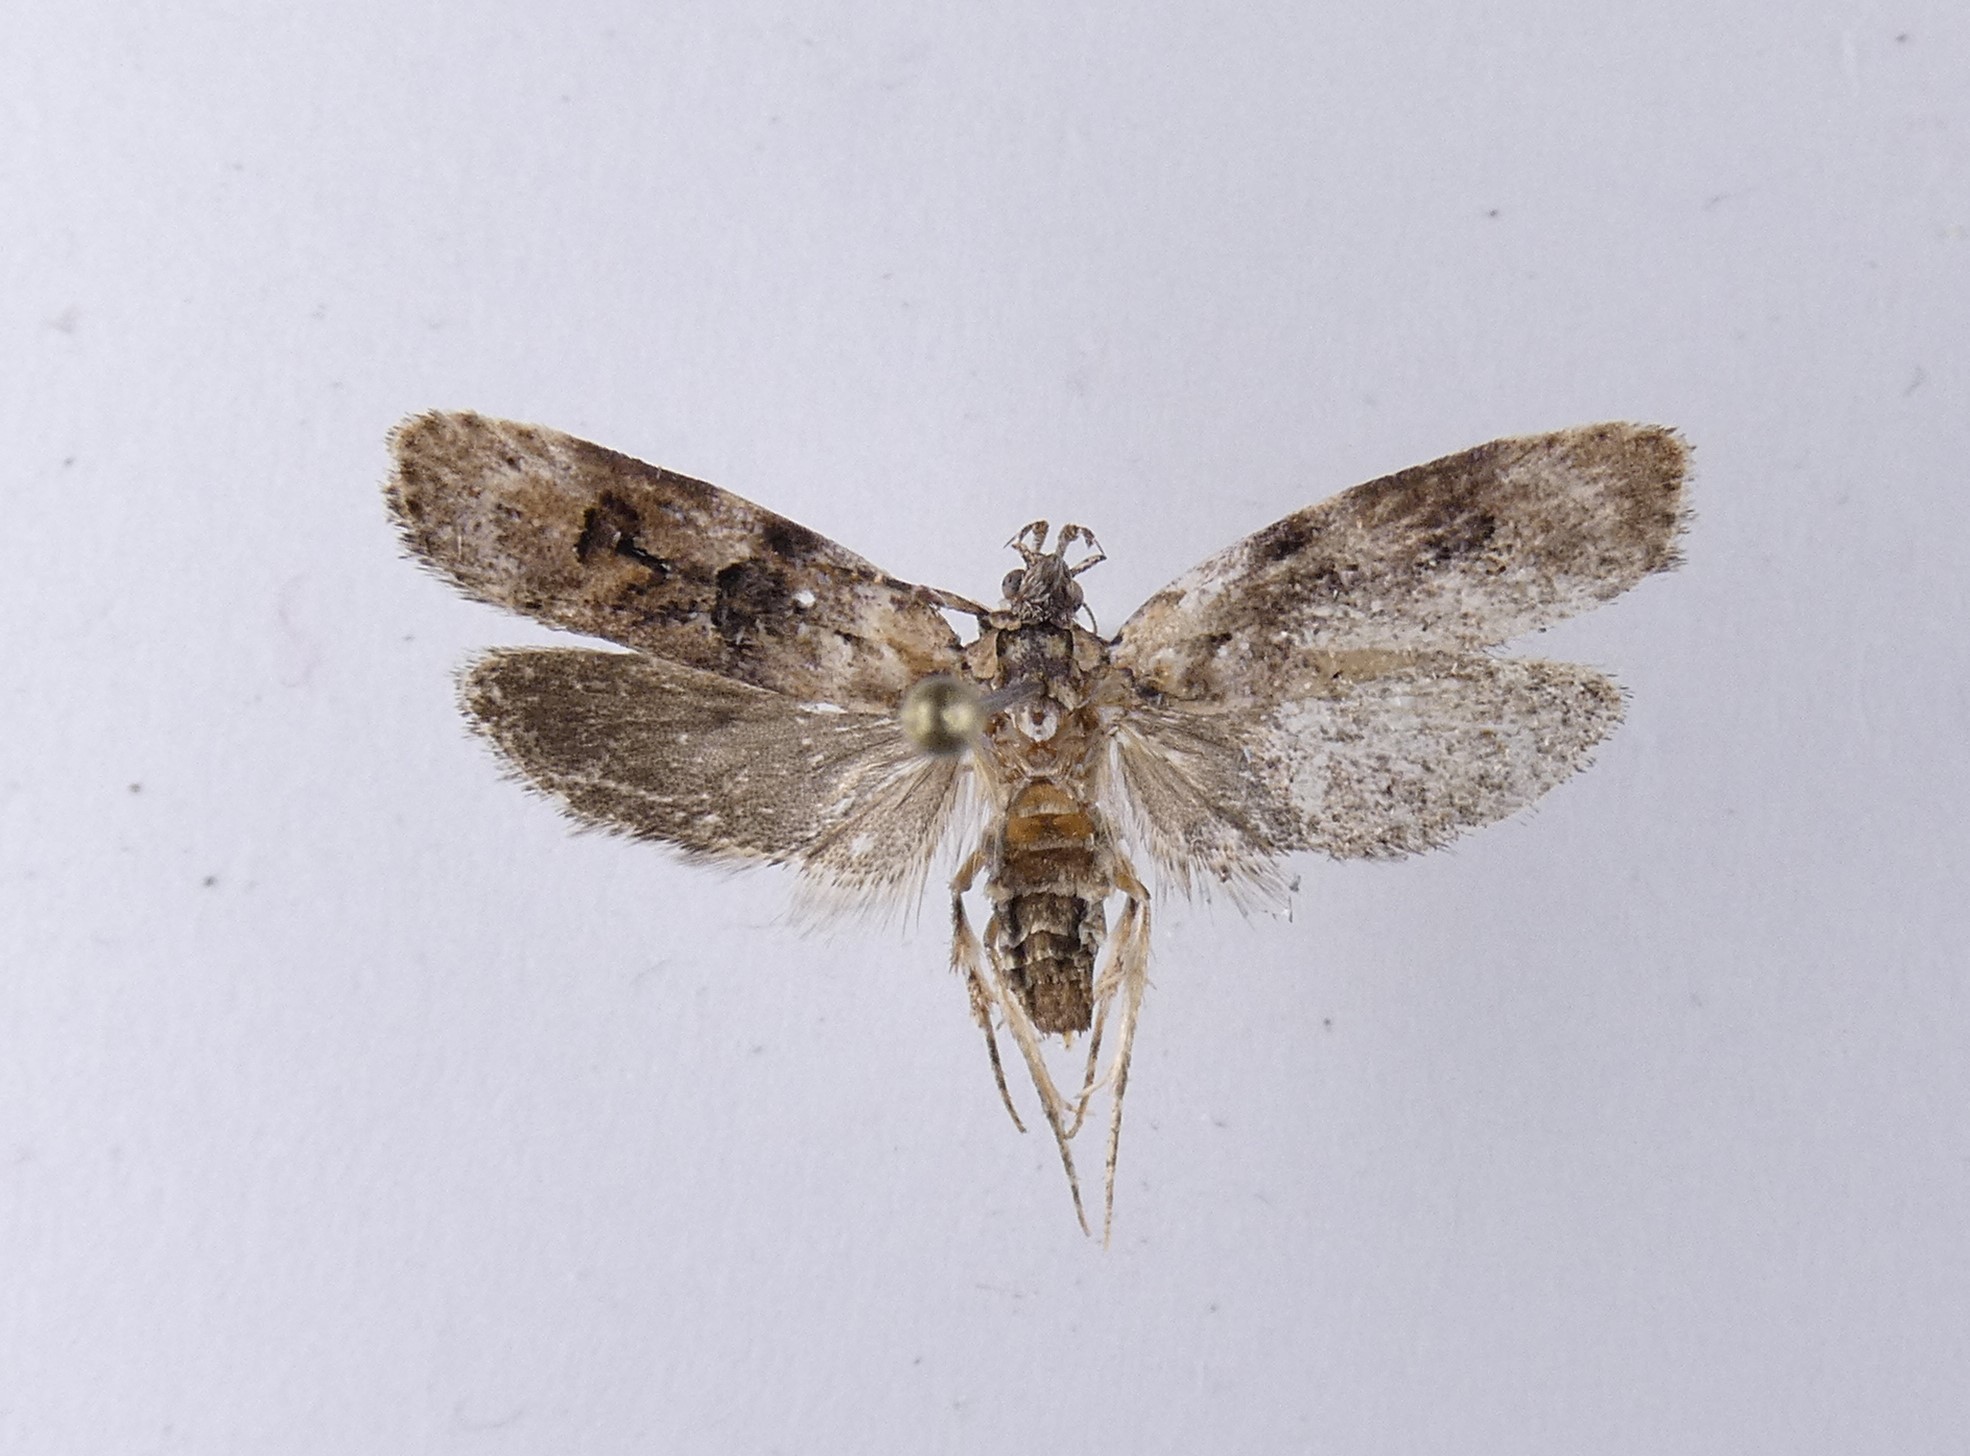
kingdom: Animalia
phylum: Arthropoda
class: Insecta
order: Lepidoptera
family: Oecophoridae
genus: Izatha
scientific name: Izatha metadelta
